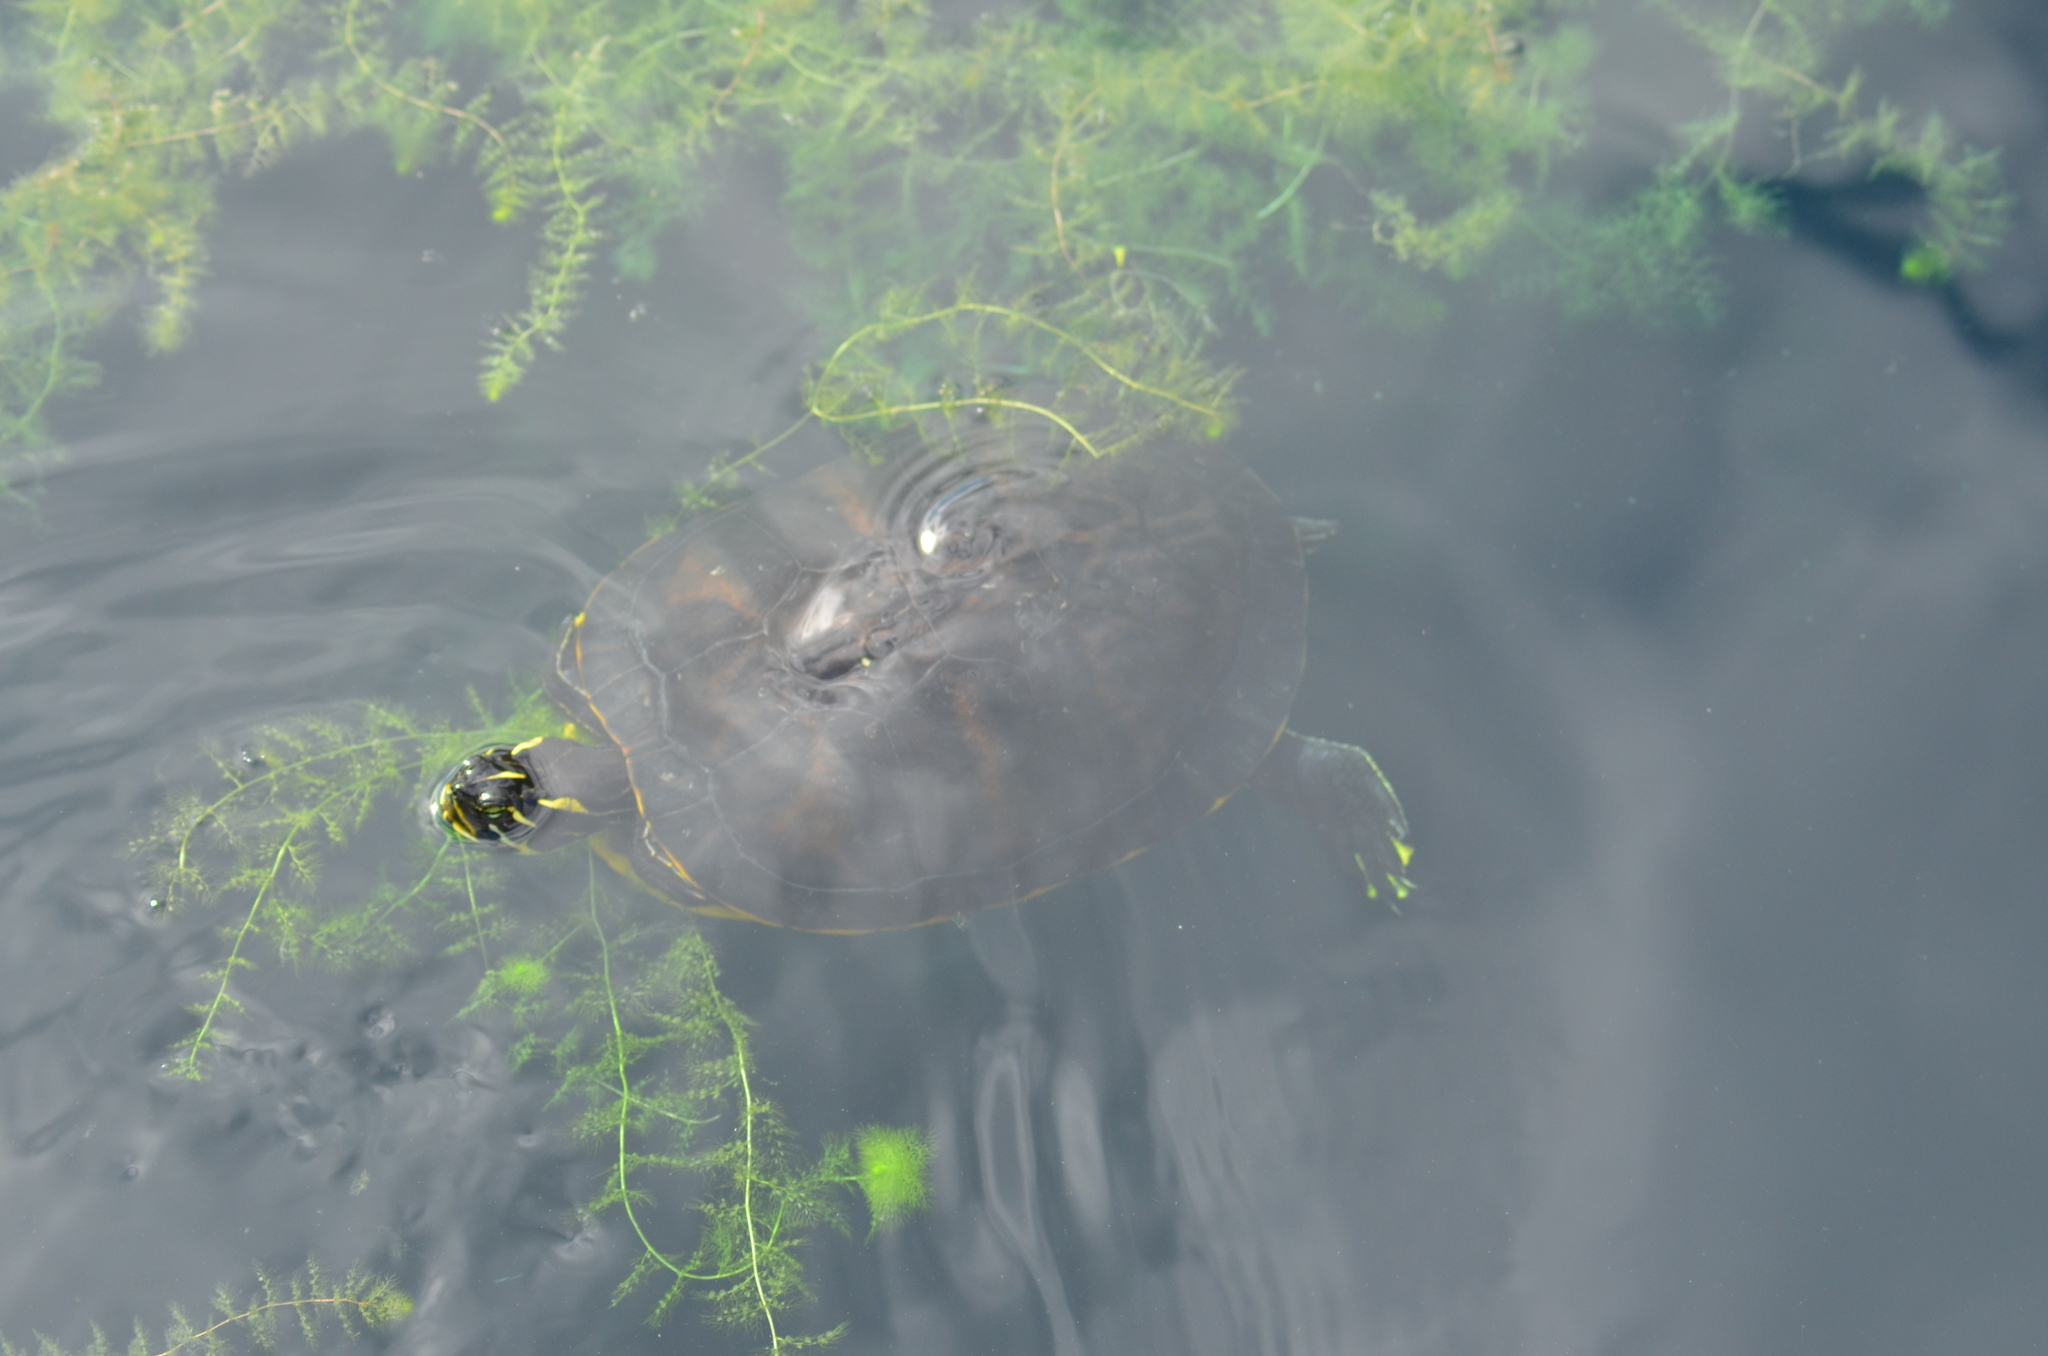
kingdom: Animalia
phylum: Chordata
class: Testudines
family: Emydidae
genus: Pseudemys
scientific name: Pseudemys concinna
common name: Eastern river cooter
